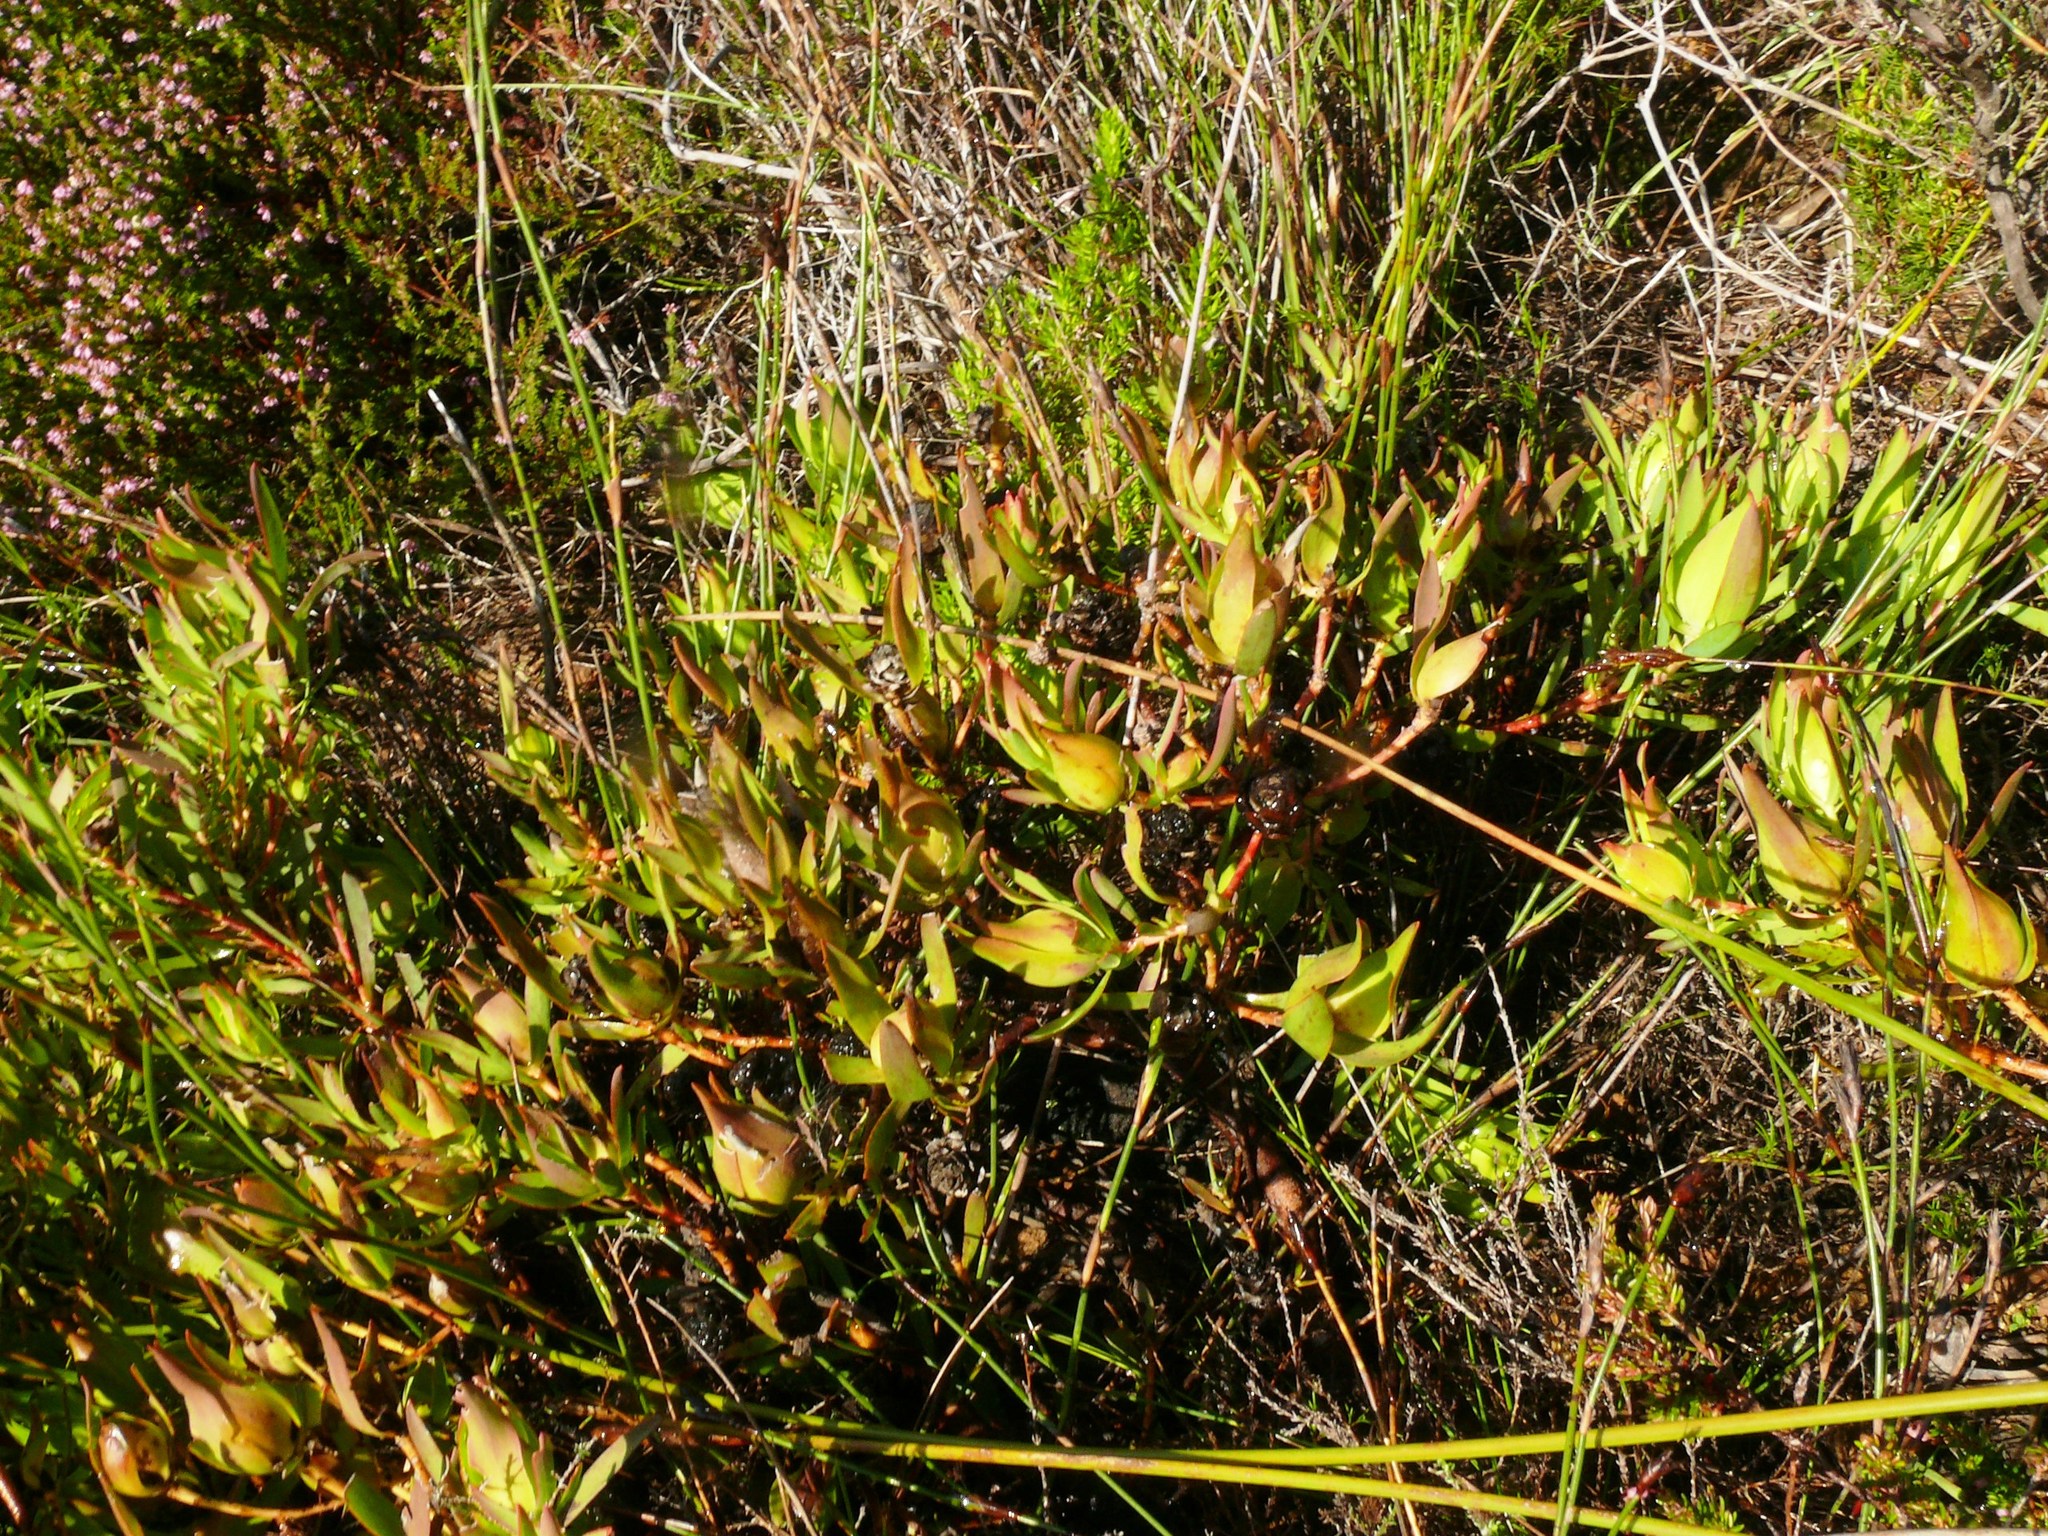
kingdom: Plantae
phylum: Tracheophyta
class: Magnoliopsida
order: Proteales
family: Proteaceae
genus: Leucadendron
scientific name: Leucadendron salignum
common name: Common sunshine conebush
